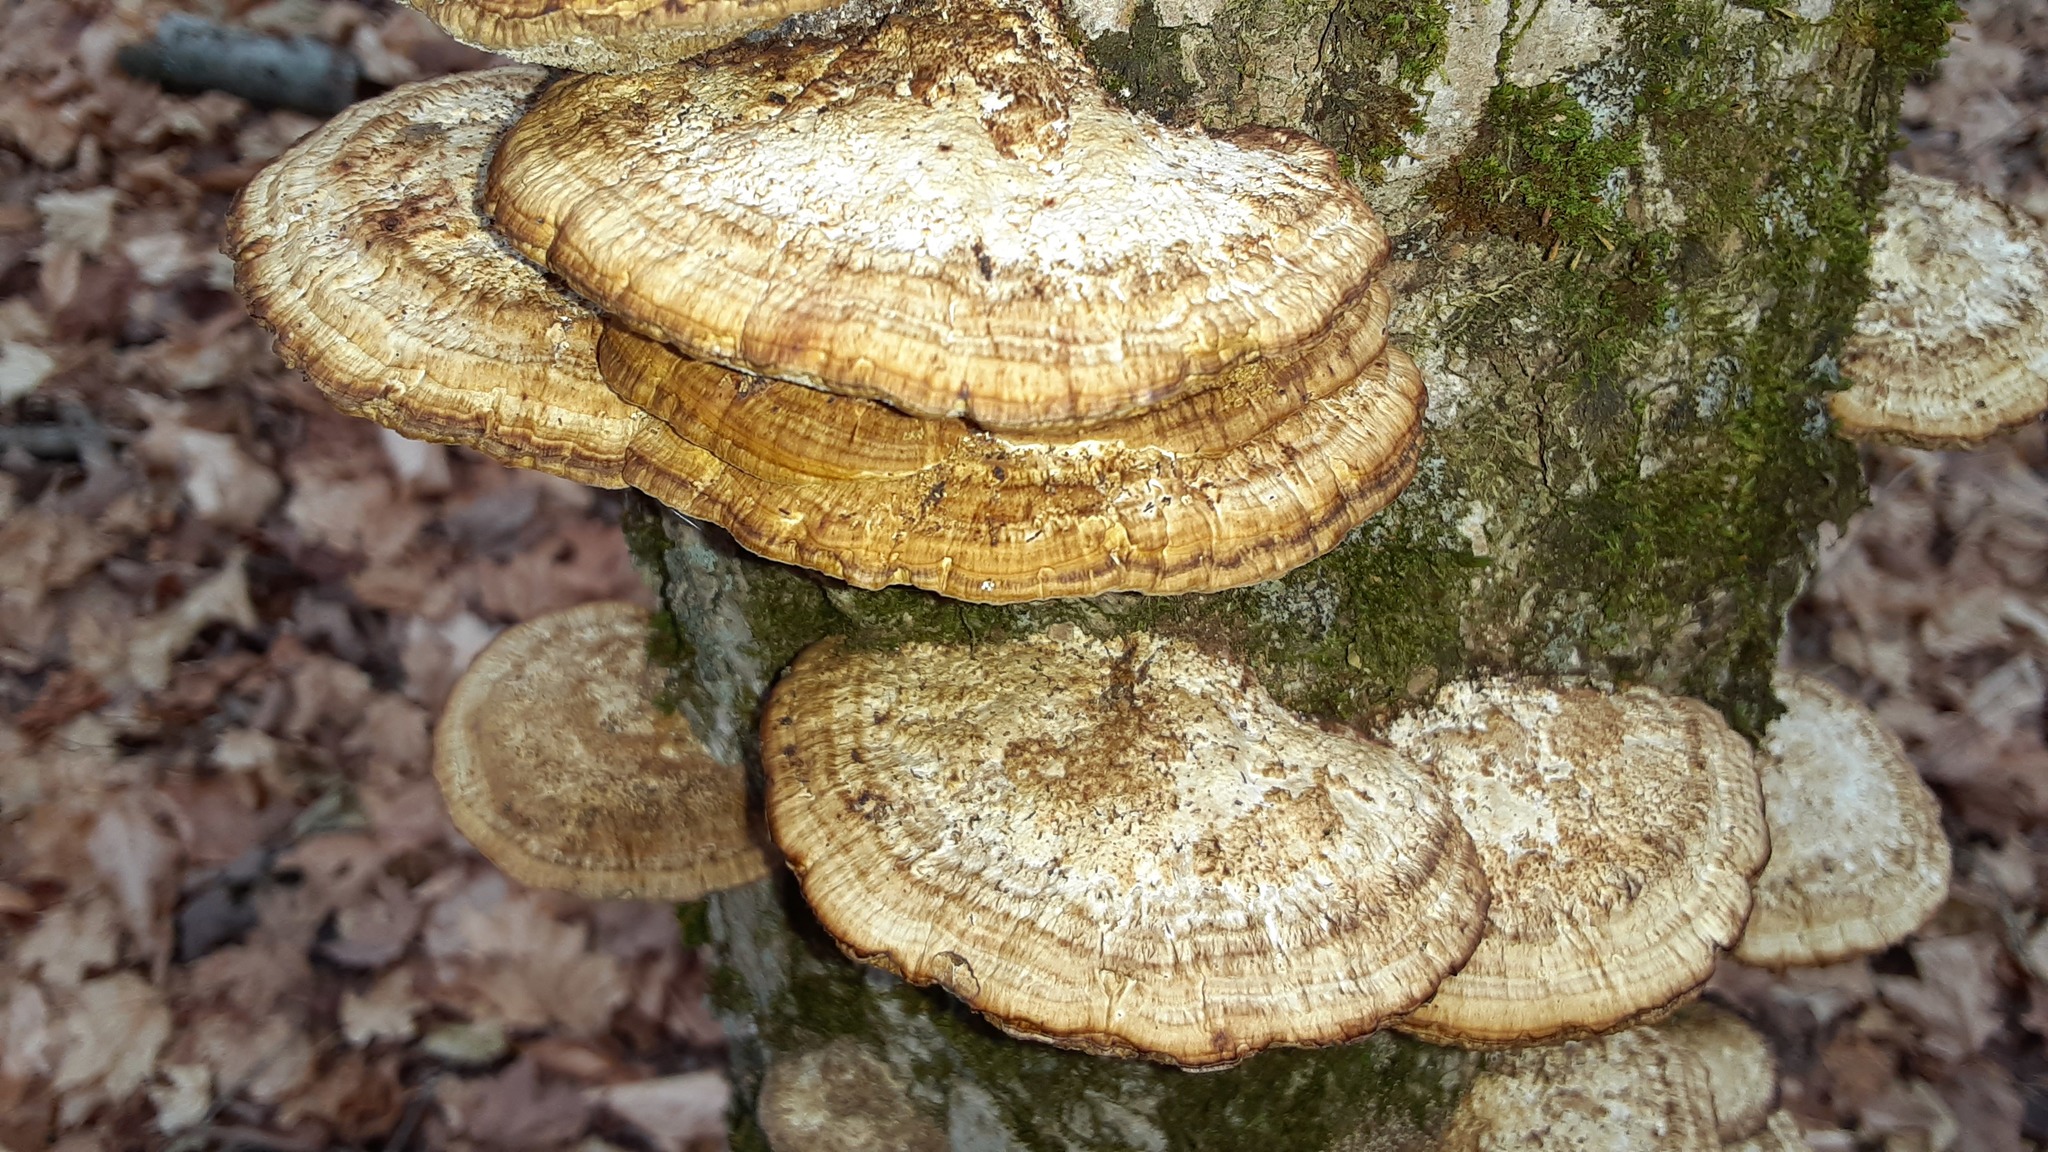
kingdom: Fungi
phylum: Basidiomycota
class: Agaricomycetes
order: Polyporales
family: Polyporaceae
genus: Daedaleopsis
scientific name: Daedaleopsis confragosa
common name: Blushing bracket
